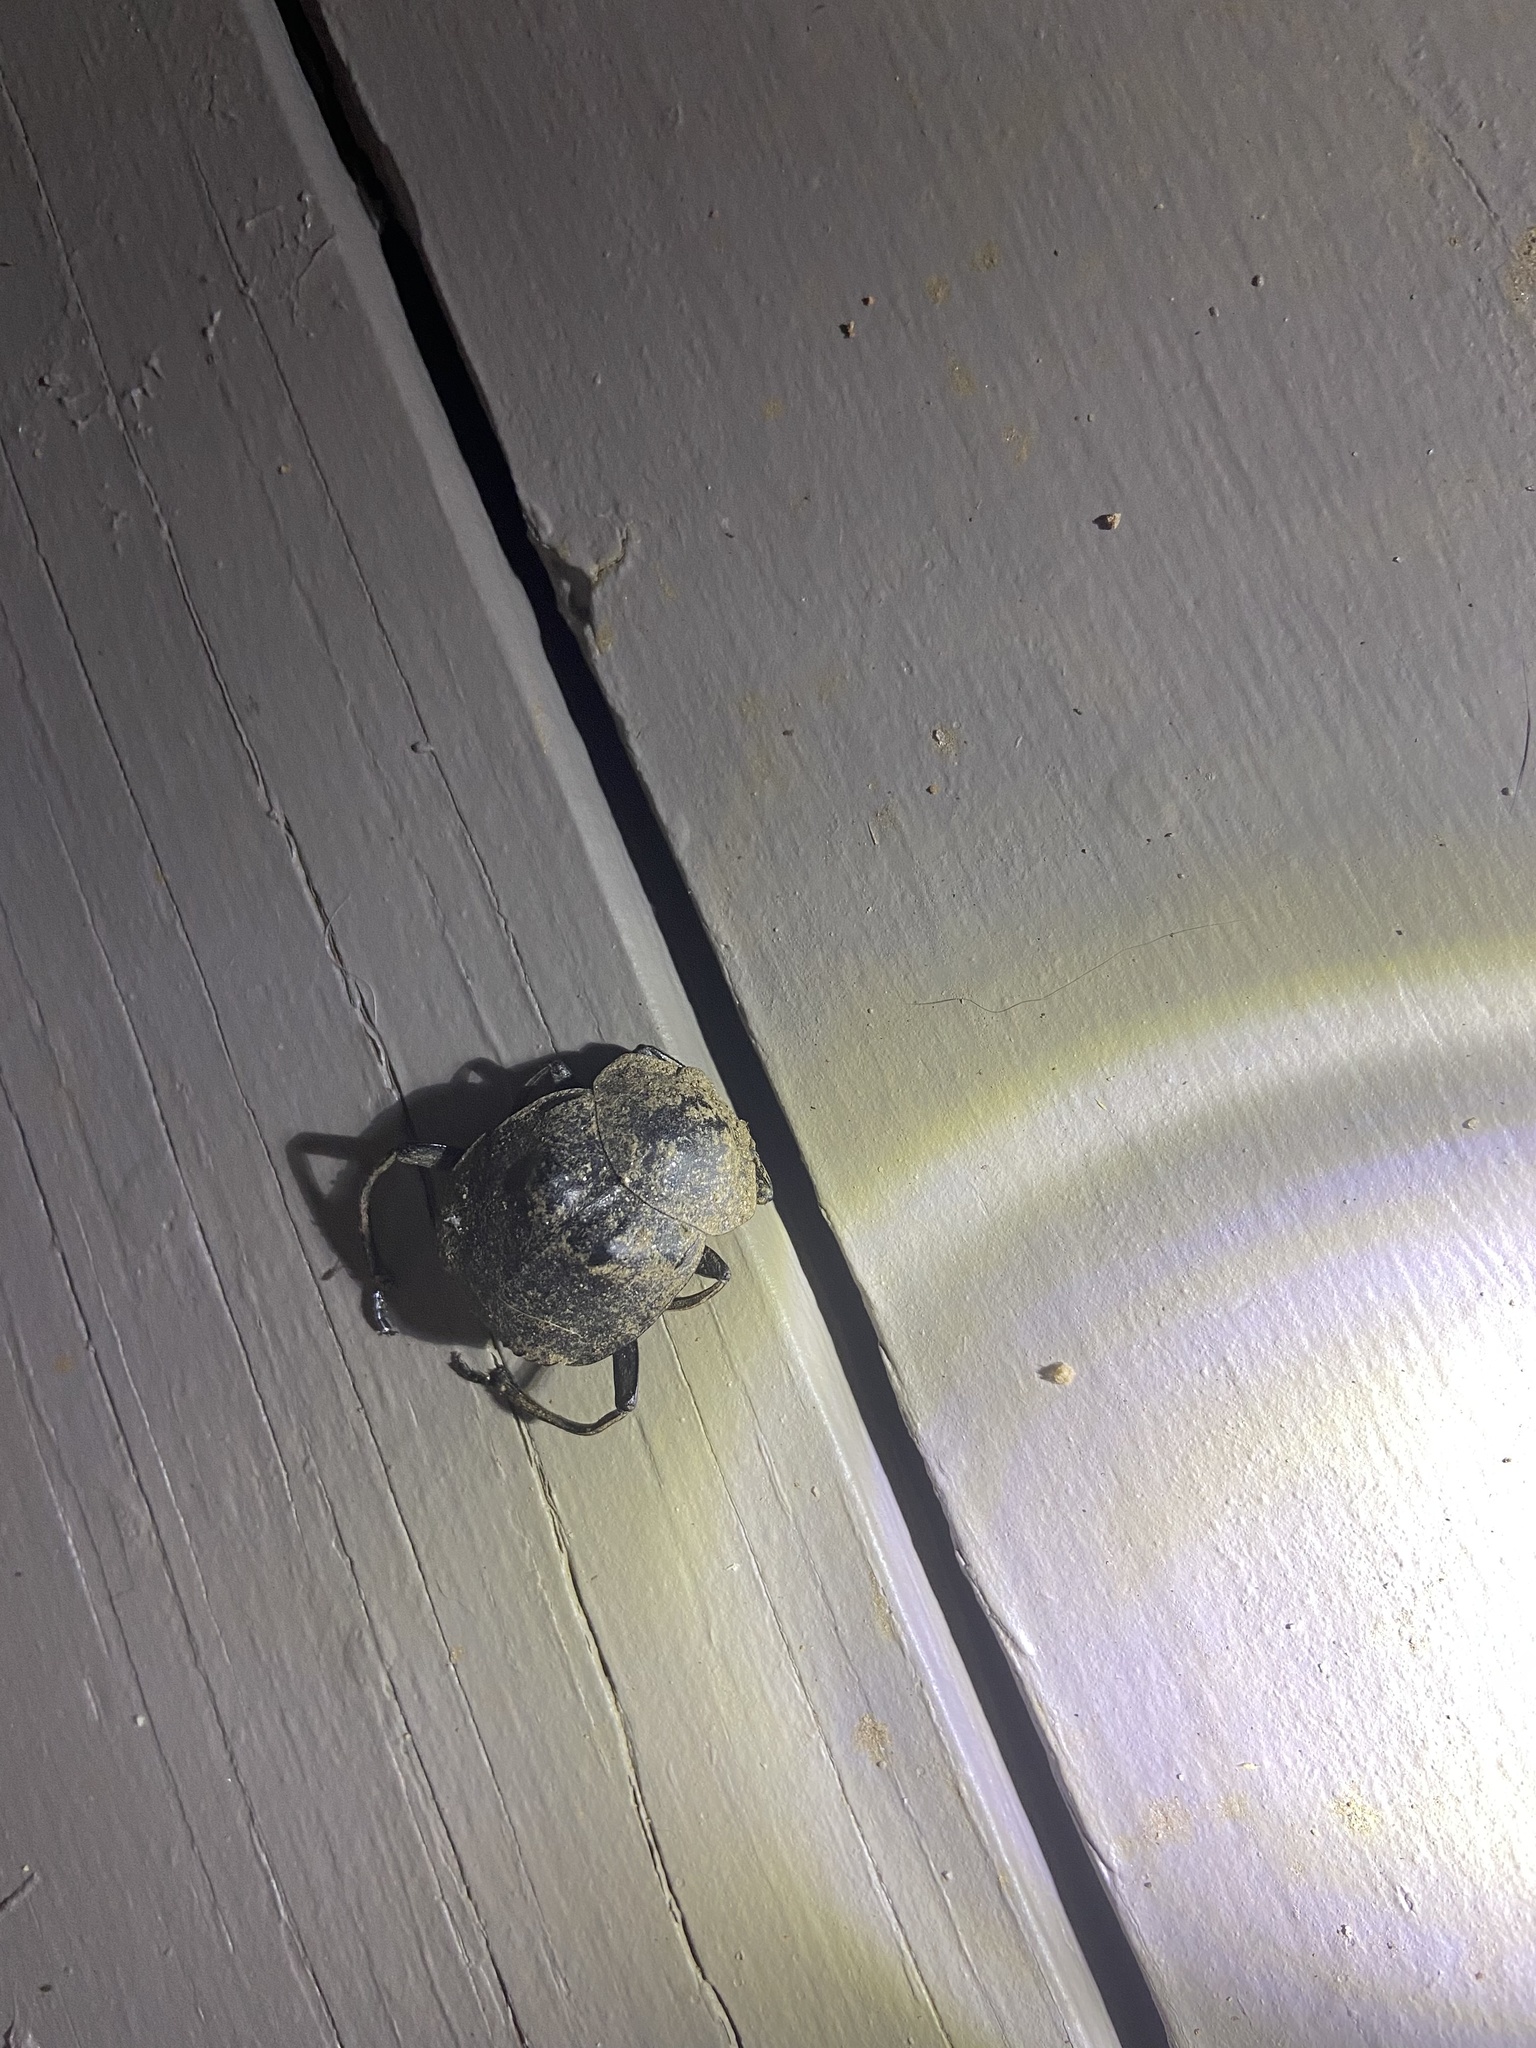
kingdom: Animalia
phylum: Arthropoda
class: Insecta
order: Coleoptera
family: Scarabaeidae
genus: Deltochilum
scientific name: Deltochilum gibbosum
